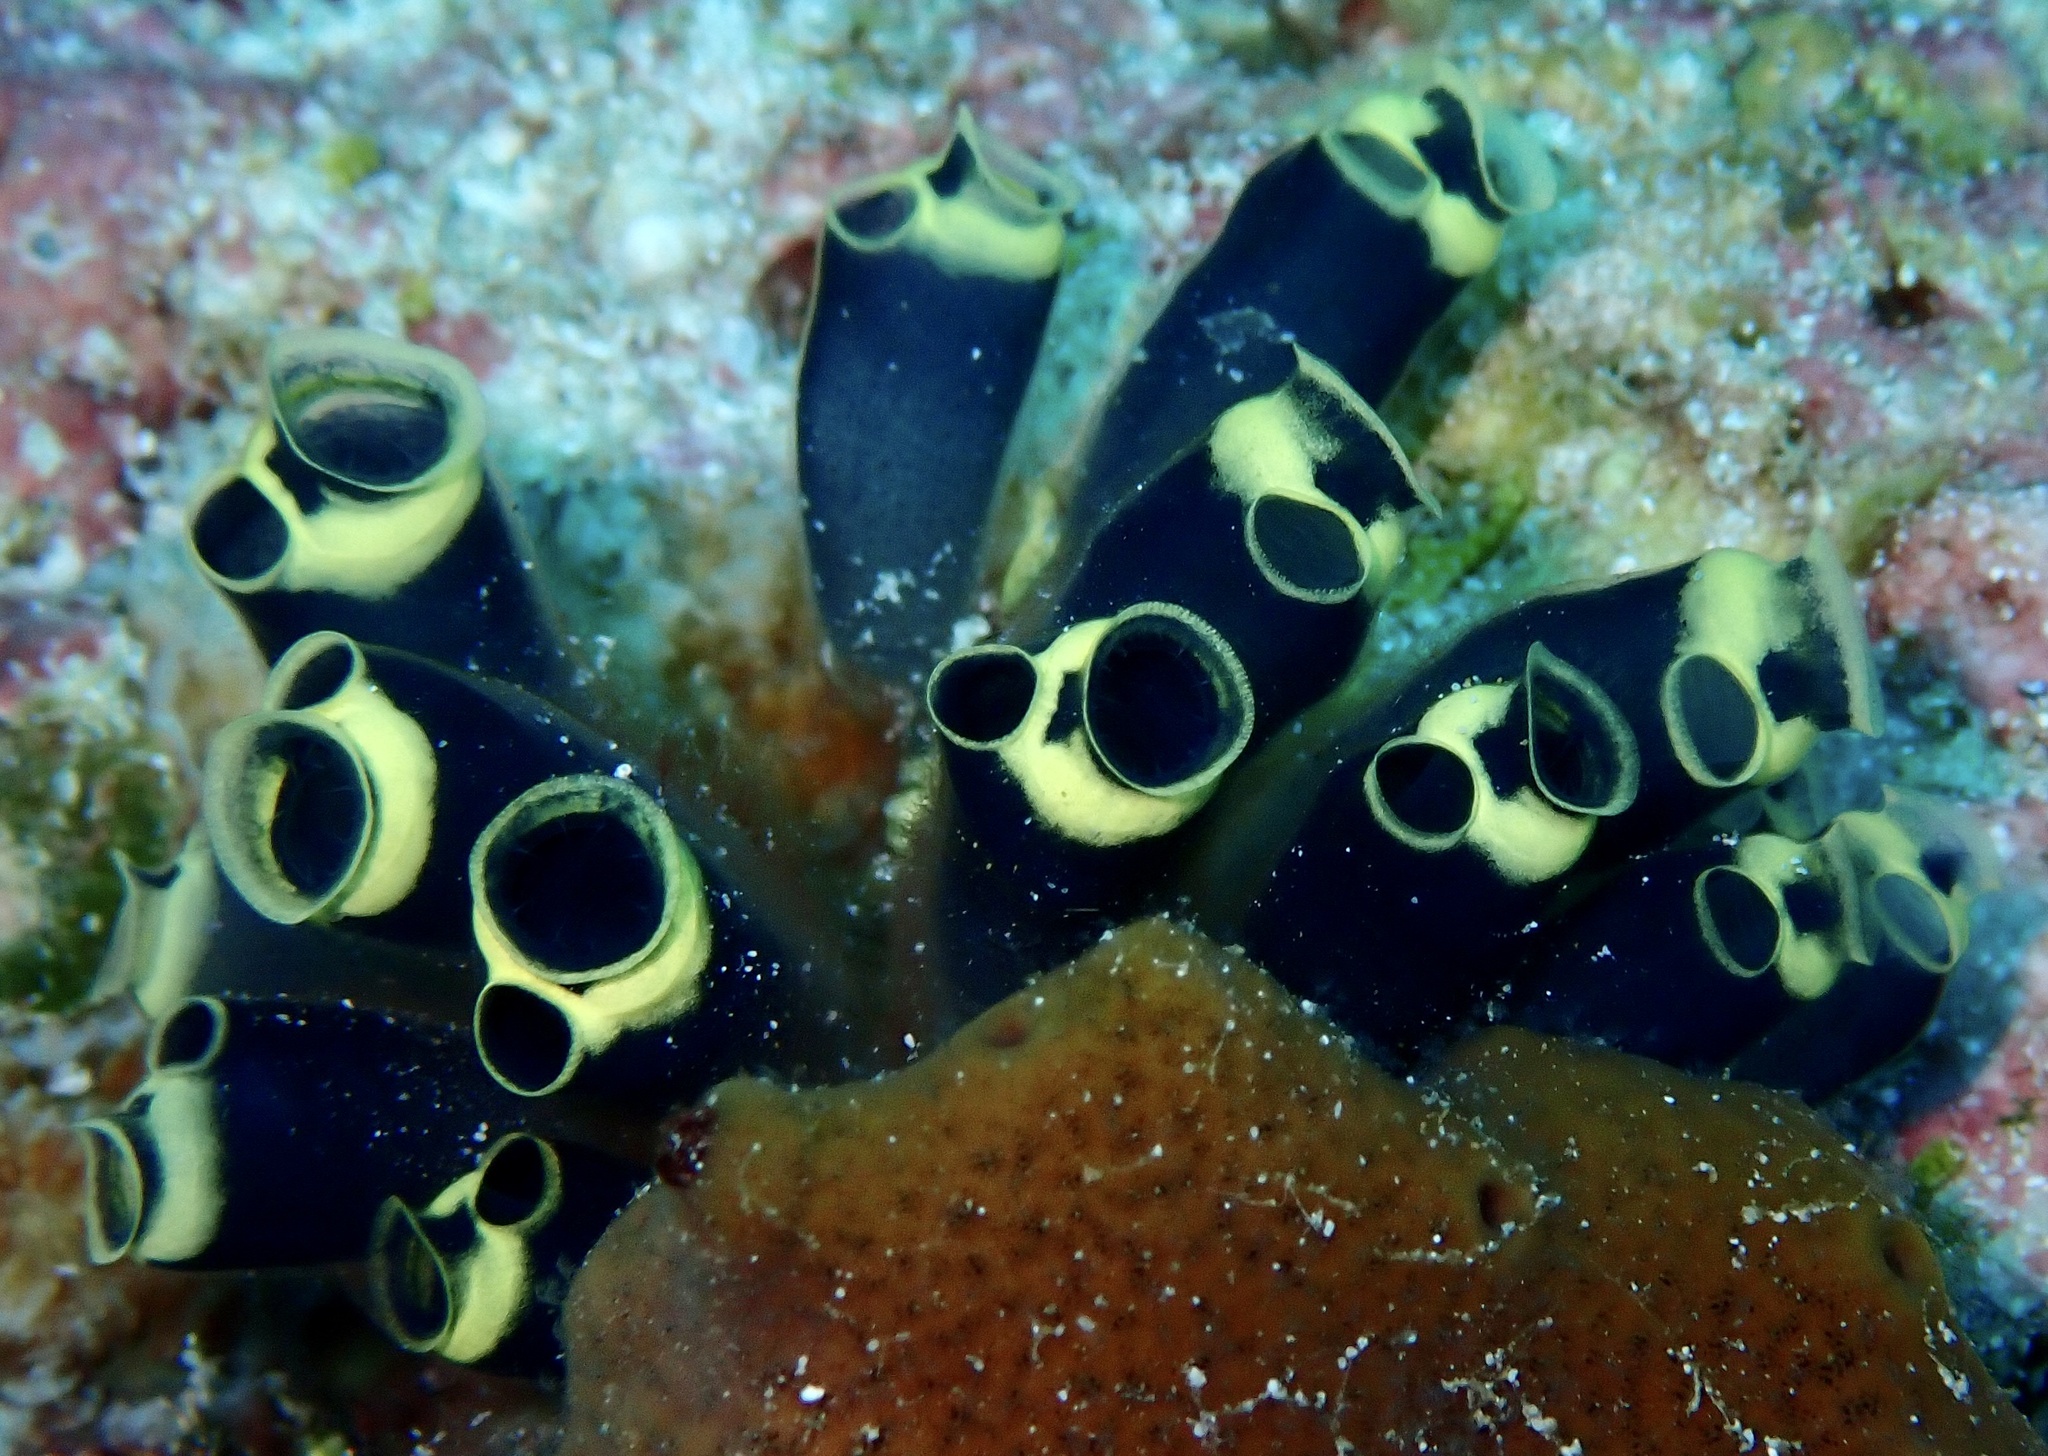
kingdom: Animalia
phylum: Chordata
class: Ascidiacea
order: Aplousobranchia
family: Clavelinidae
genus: Clavelina
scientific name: Clavelina robusta
